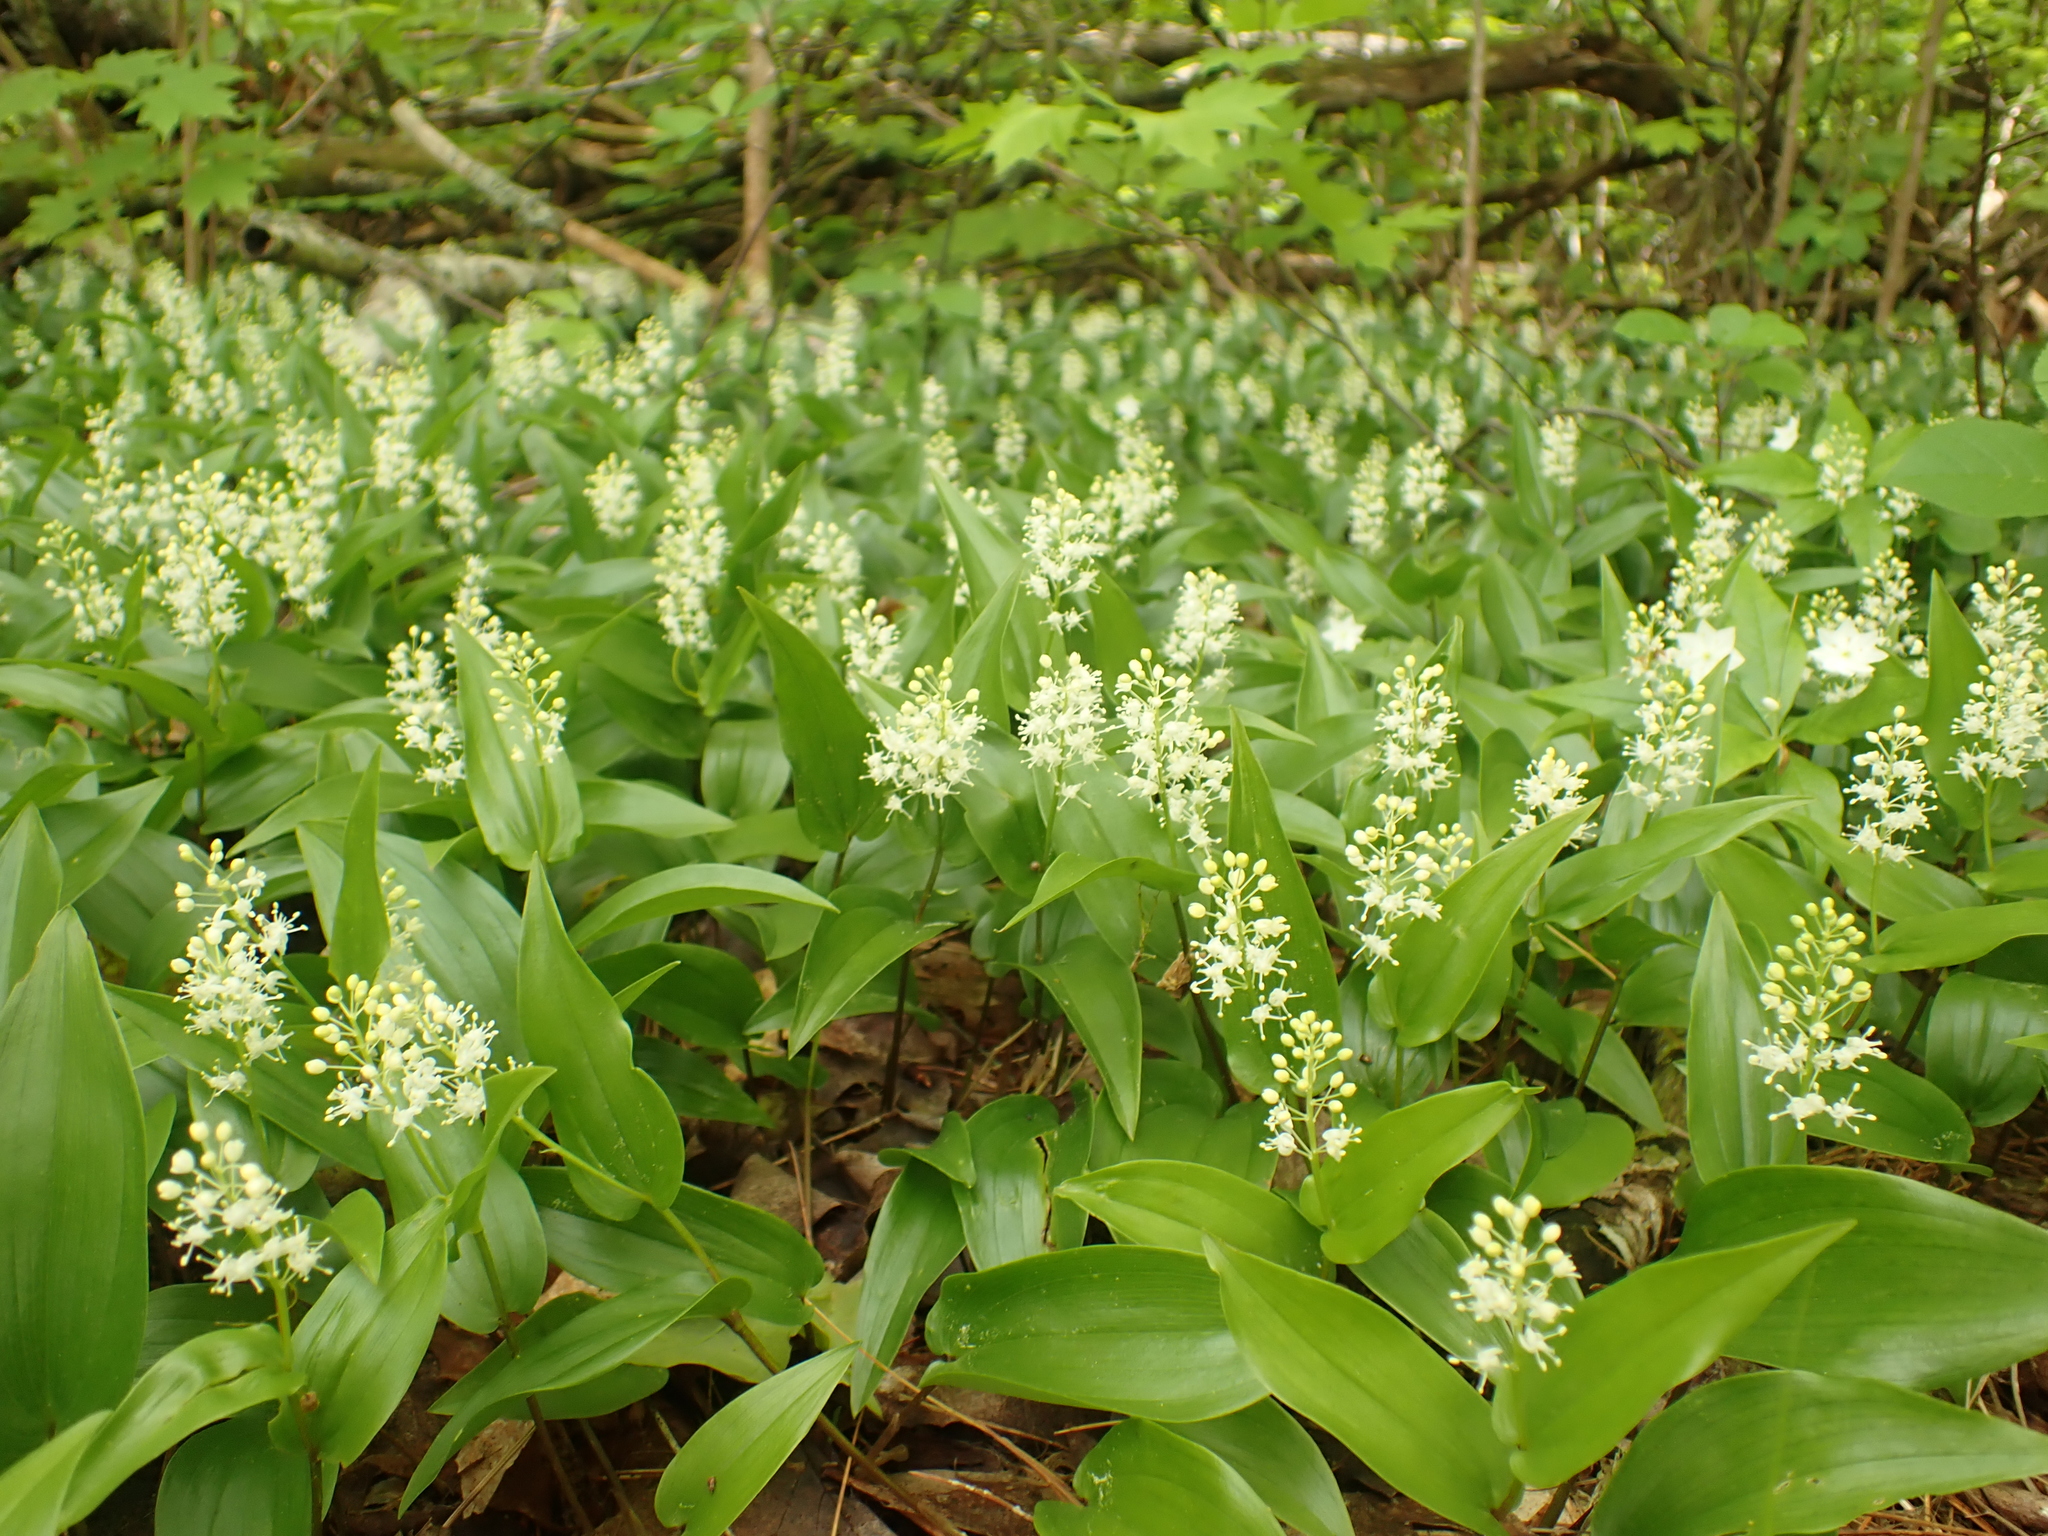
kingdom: Plantae
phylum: Tracheophyta
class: Liliopsida
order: Asparagales
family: Asparagaceae
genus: Maianthemum
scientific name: Maianthemum canadense
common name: False lily-of-the-valley
